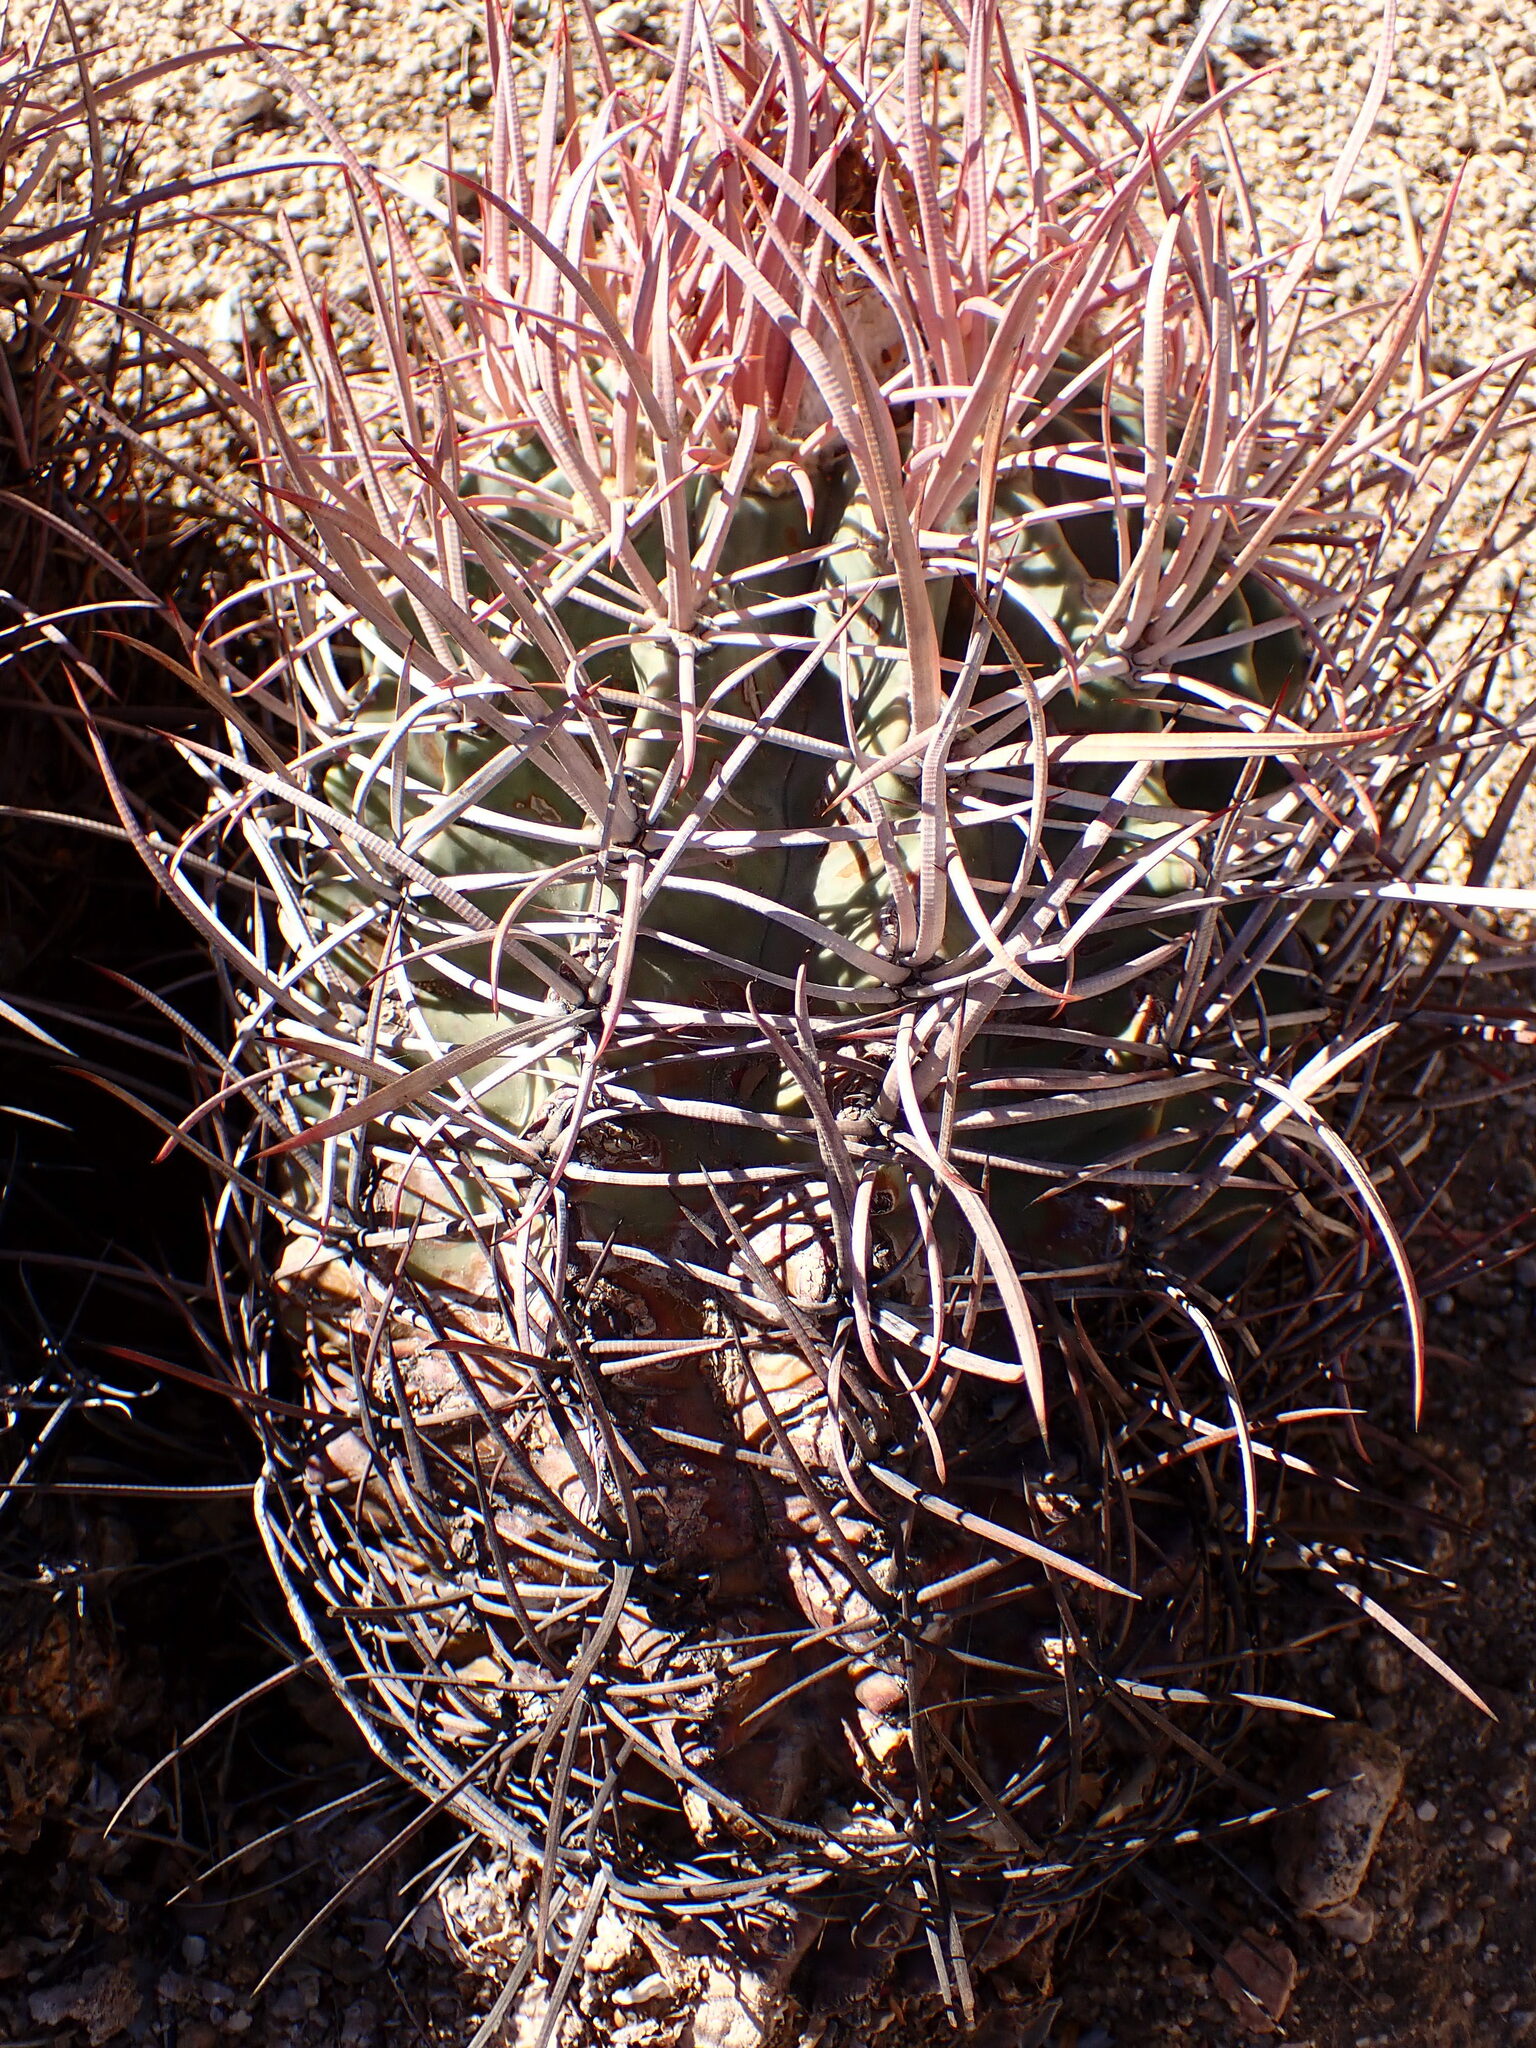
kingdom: Plantae
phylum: Tracheophyta
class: Magnoliopsida
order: Caryophyllales
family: Cactaceae
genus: Echinocactus
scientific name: Echinocactus polycephalus
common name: Cottontop cactus
